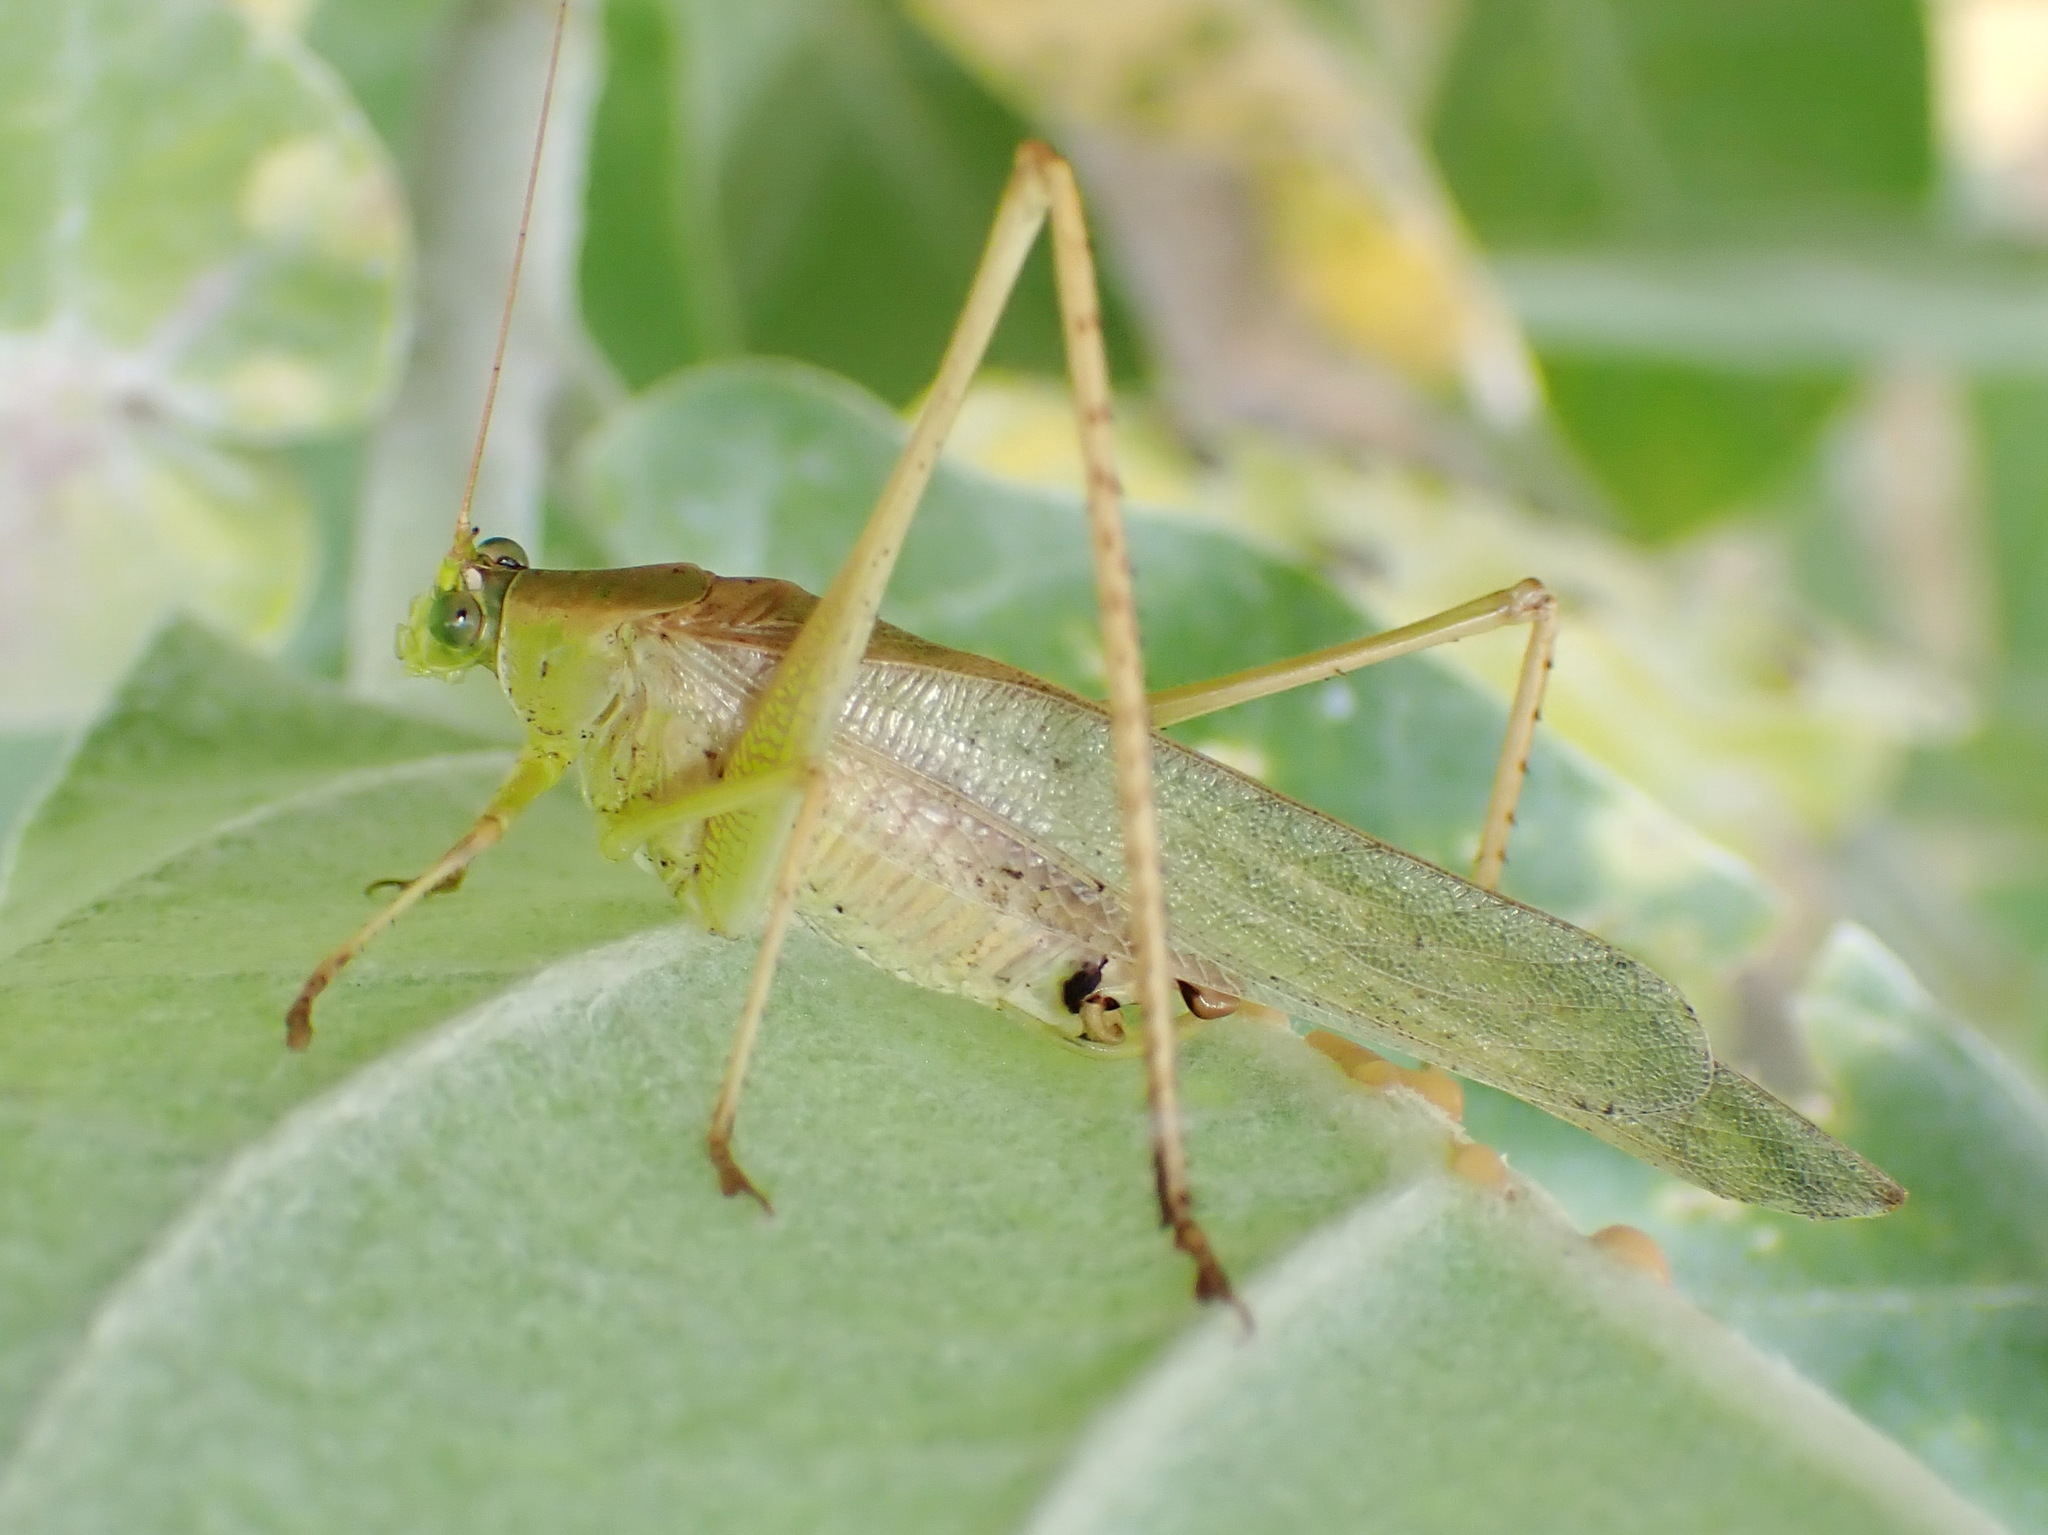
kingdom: Animalia
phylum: Arthropoda
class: Insecta
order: Orthoptera
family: Tettigoniidae
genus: Scudderia
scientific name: Scudderia furcata
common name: Fork-tailed bush katydid
